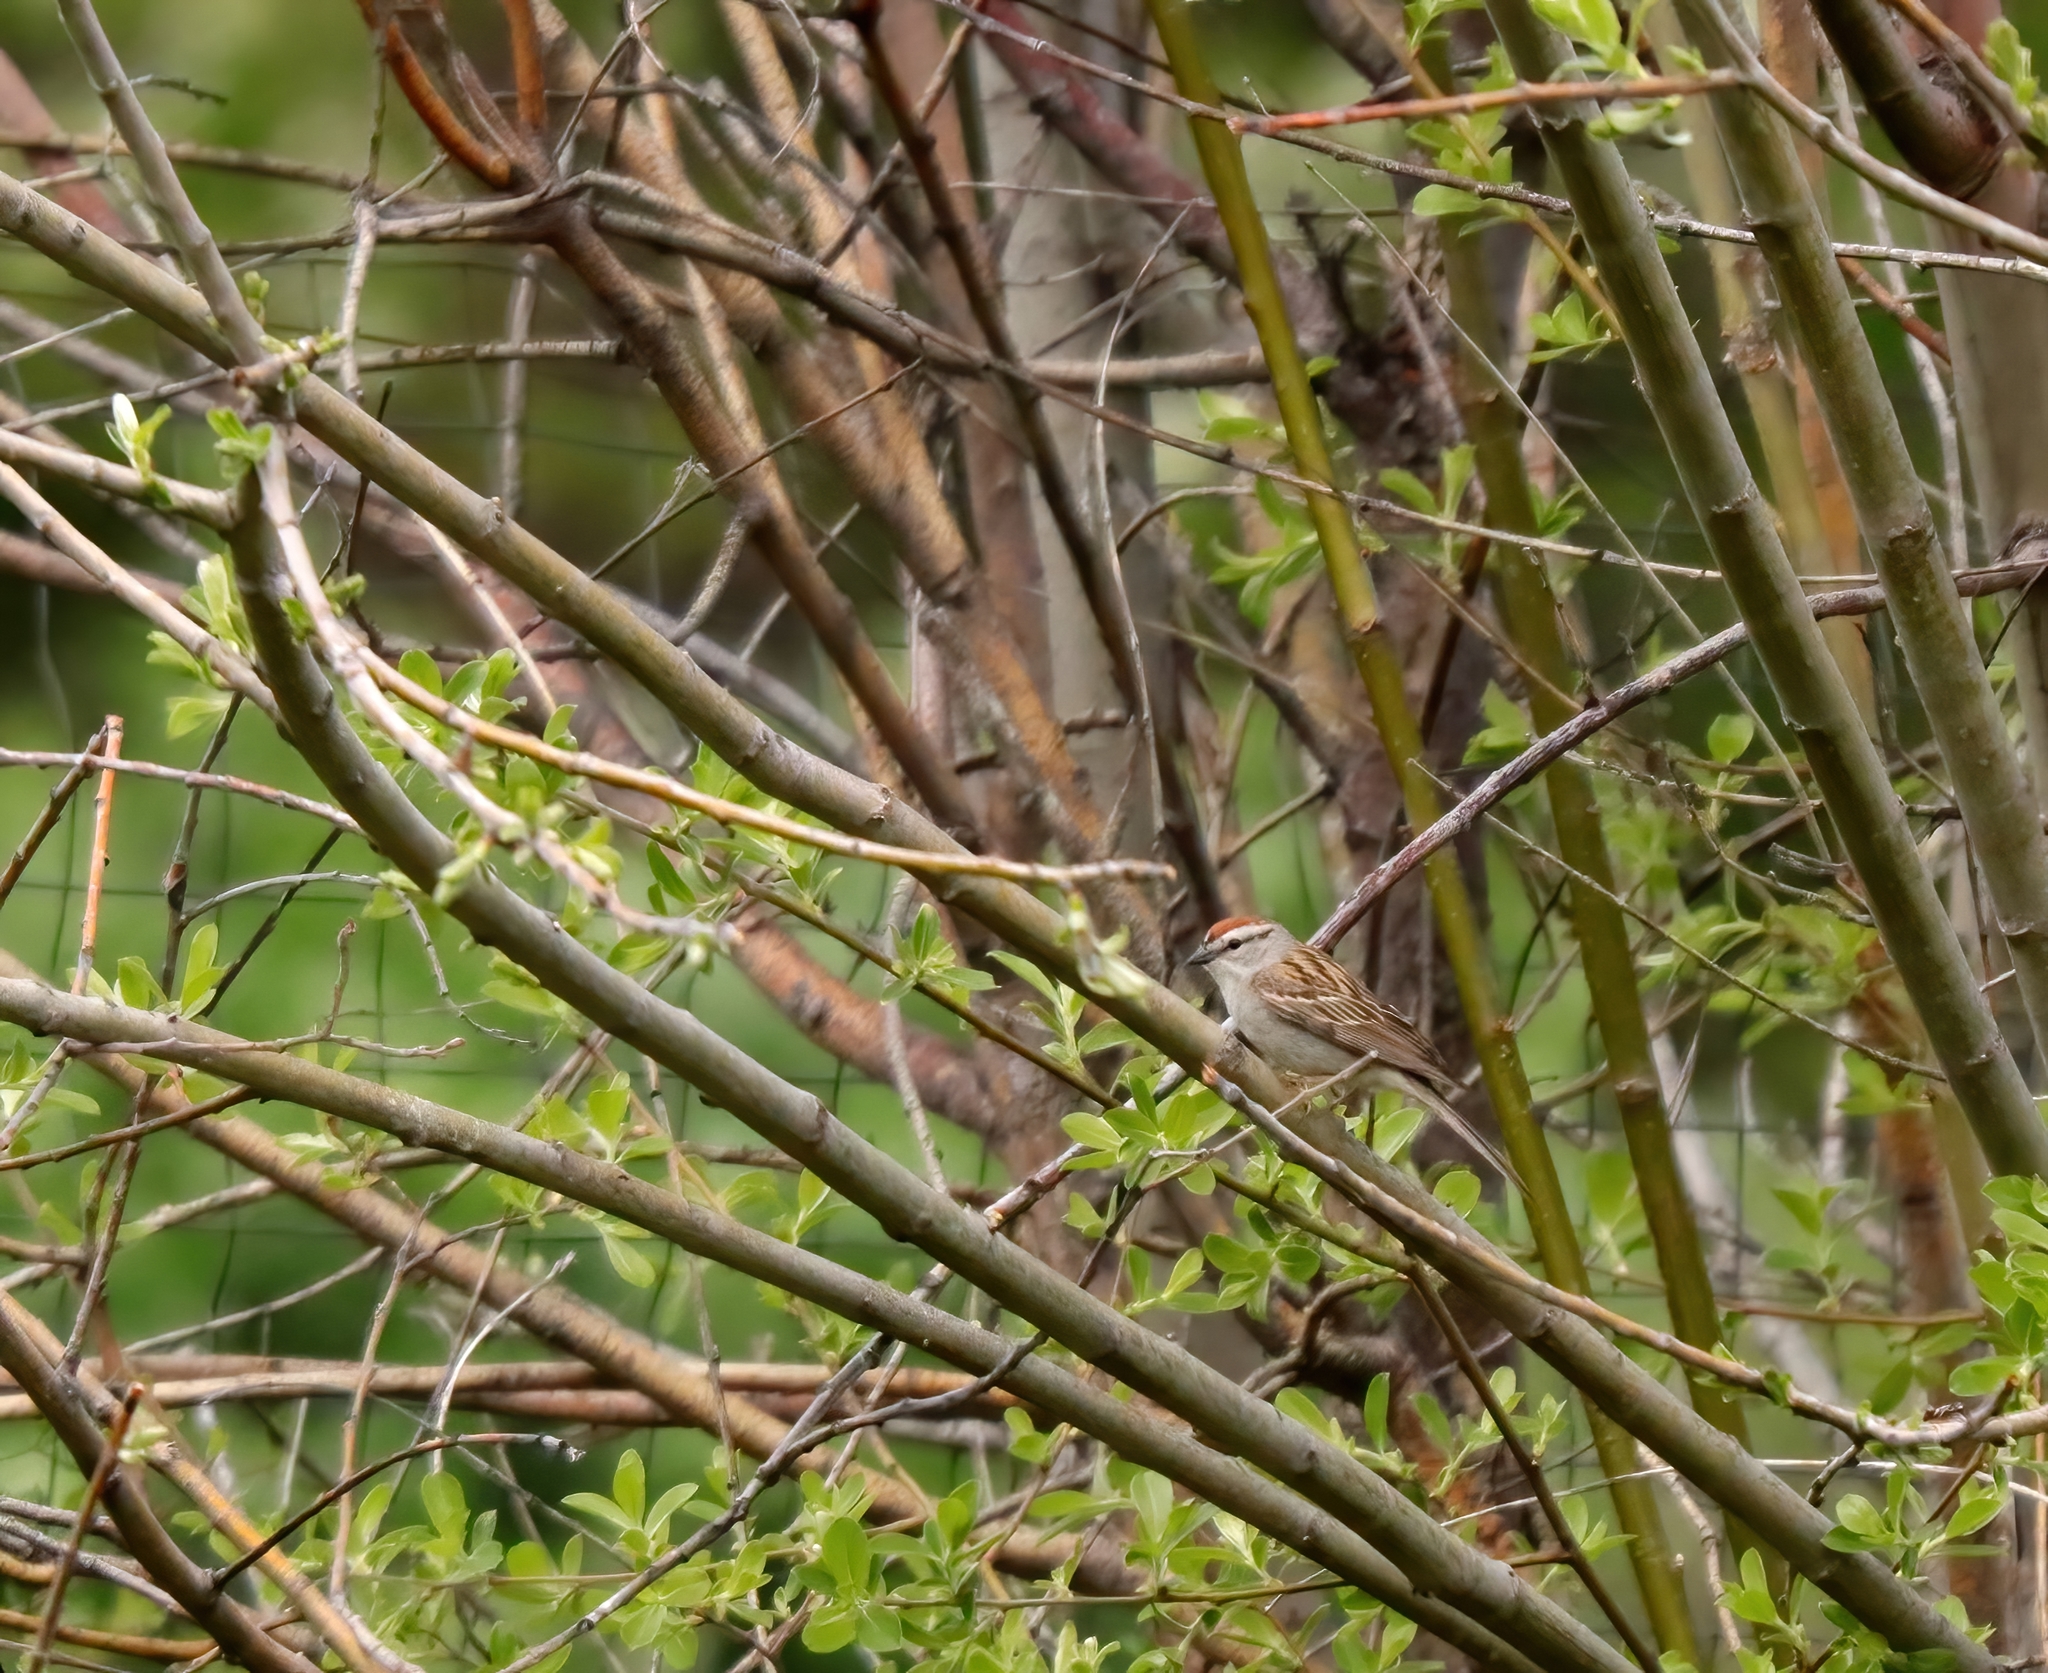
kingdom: Animalia
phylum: Chordata
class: Aves
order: Passeriformes
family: Passerellidae
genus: Spizella
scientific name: Spizella passerina
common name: Chipping sparrow
